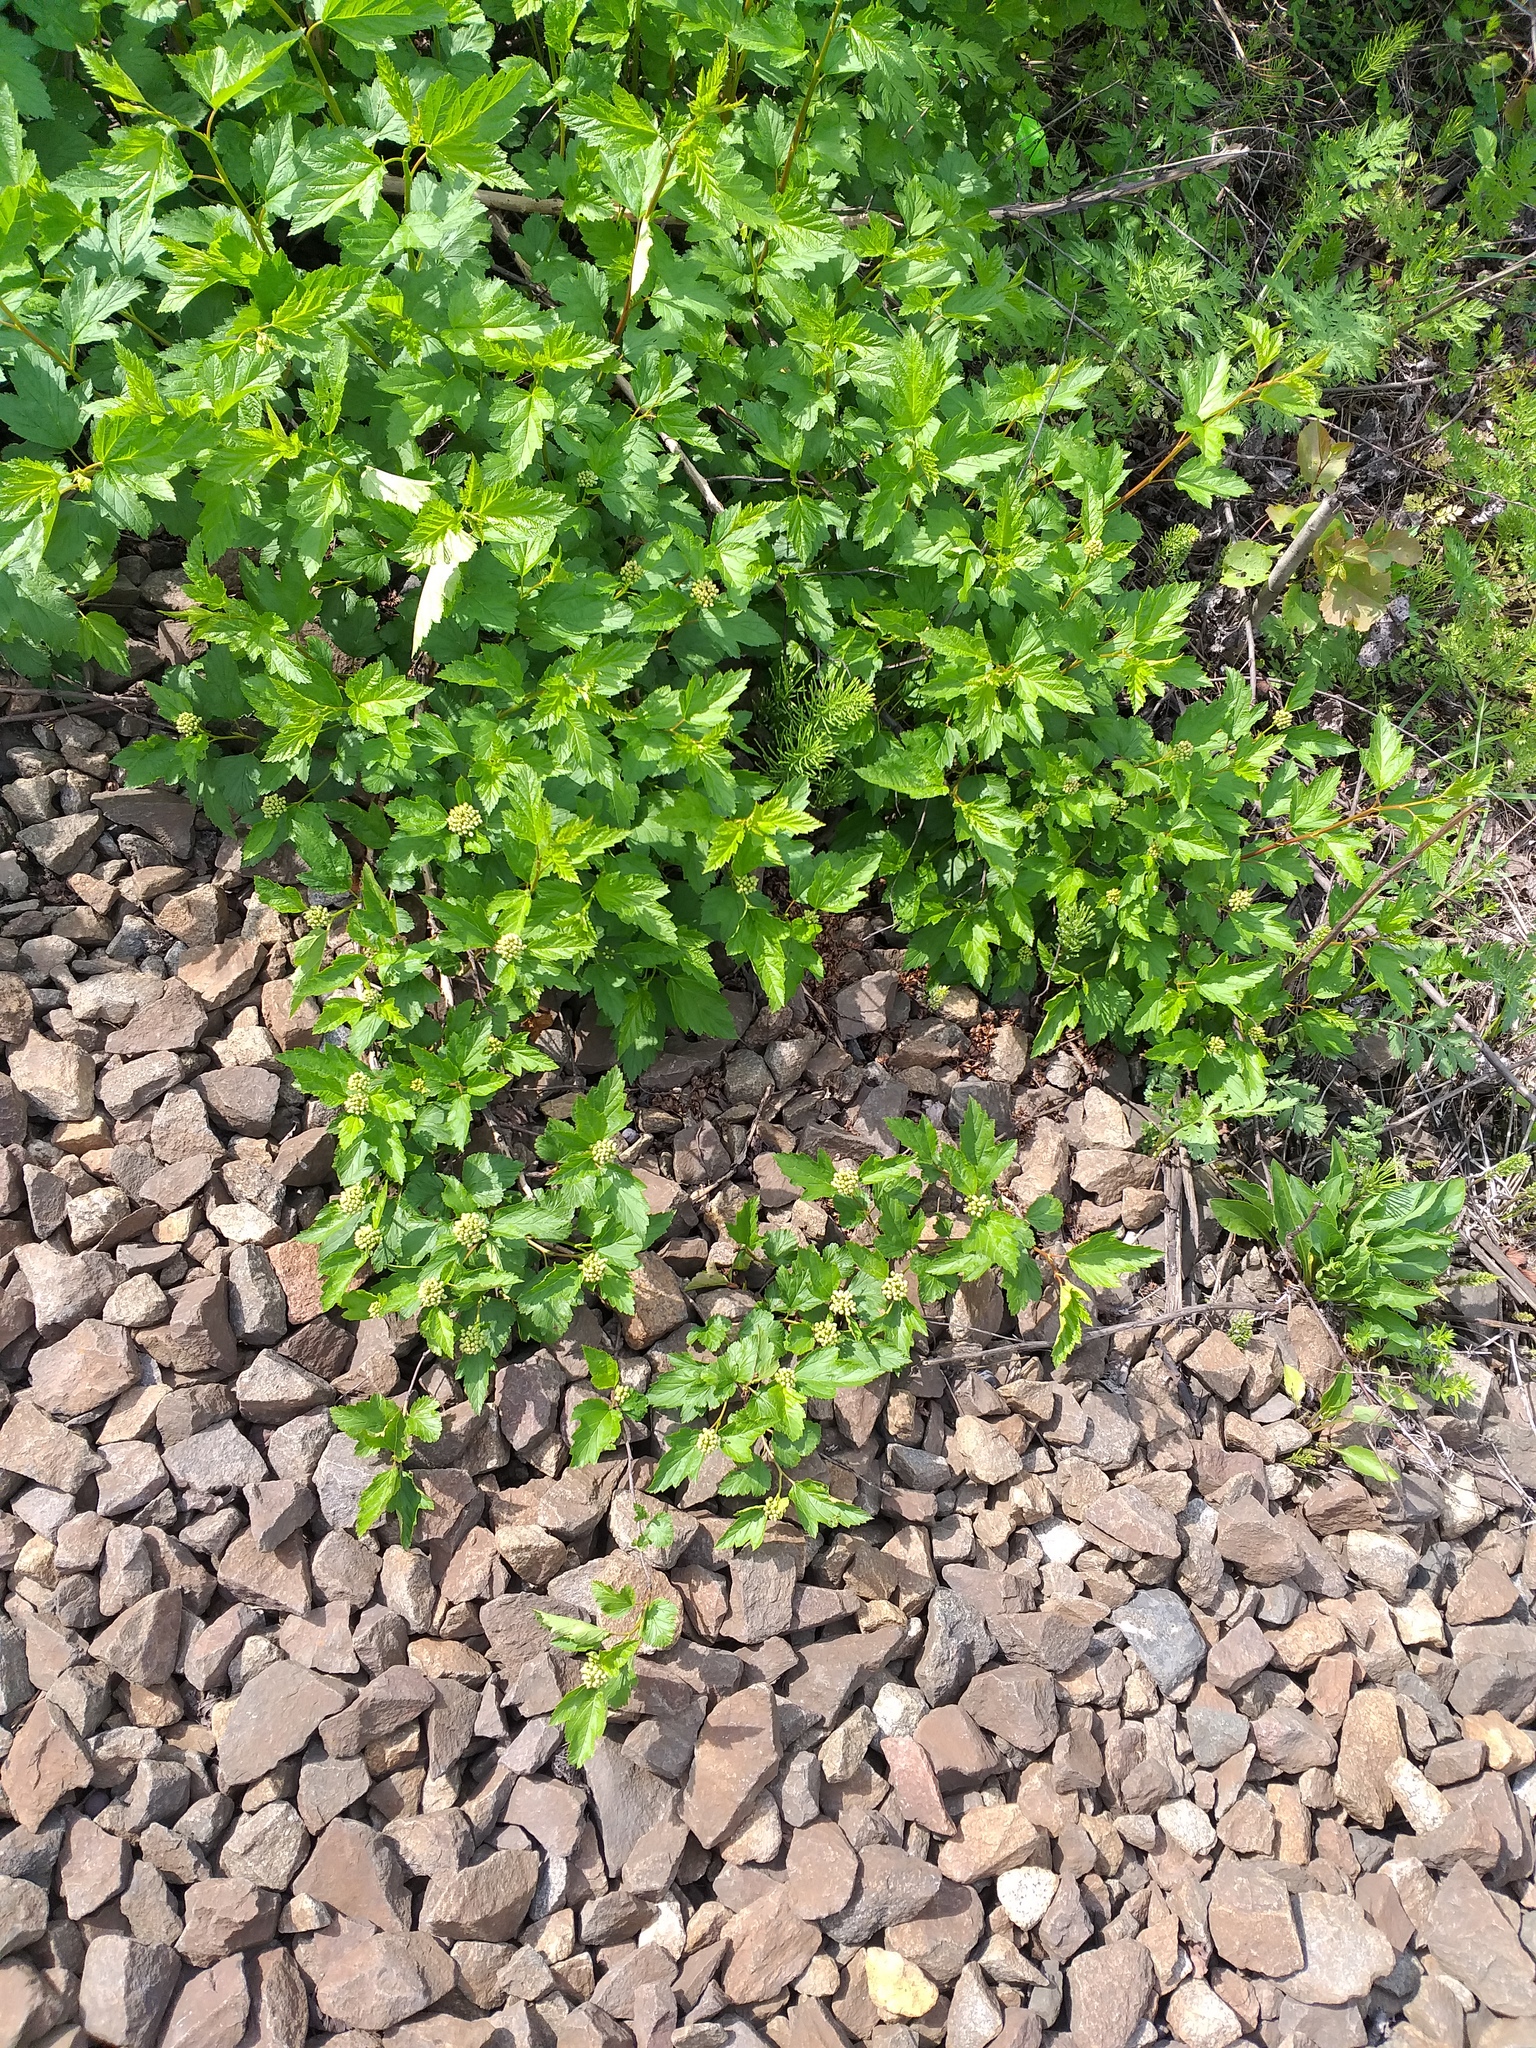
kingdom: Plantae
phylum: Tracheophyta
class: Magnoliopsida
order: Rosales
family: Rosaceae
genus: Physocarpus
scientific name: Physocarpus opulifolius
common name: Ninebark
